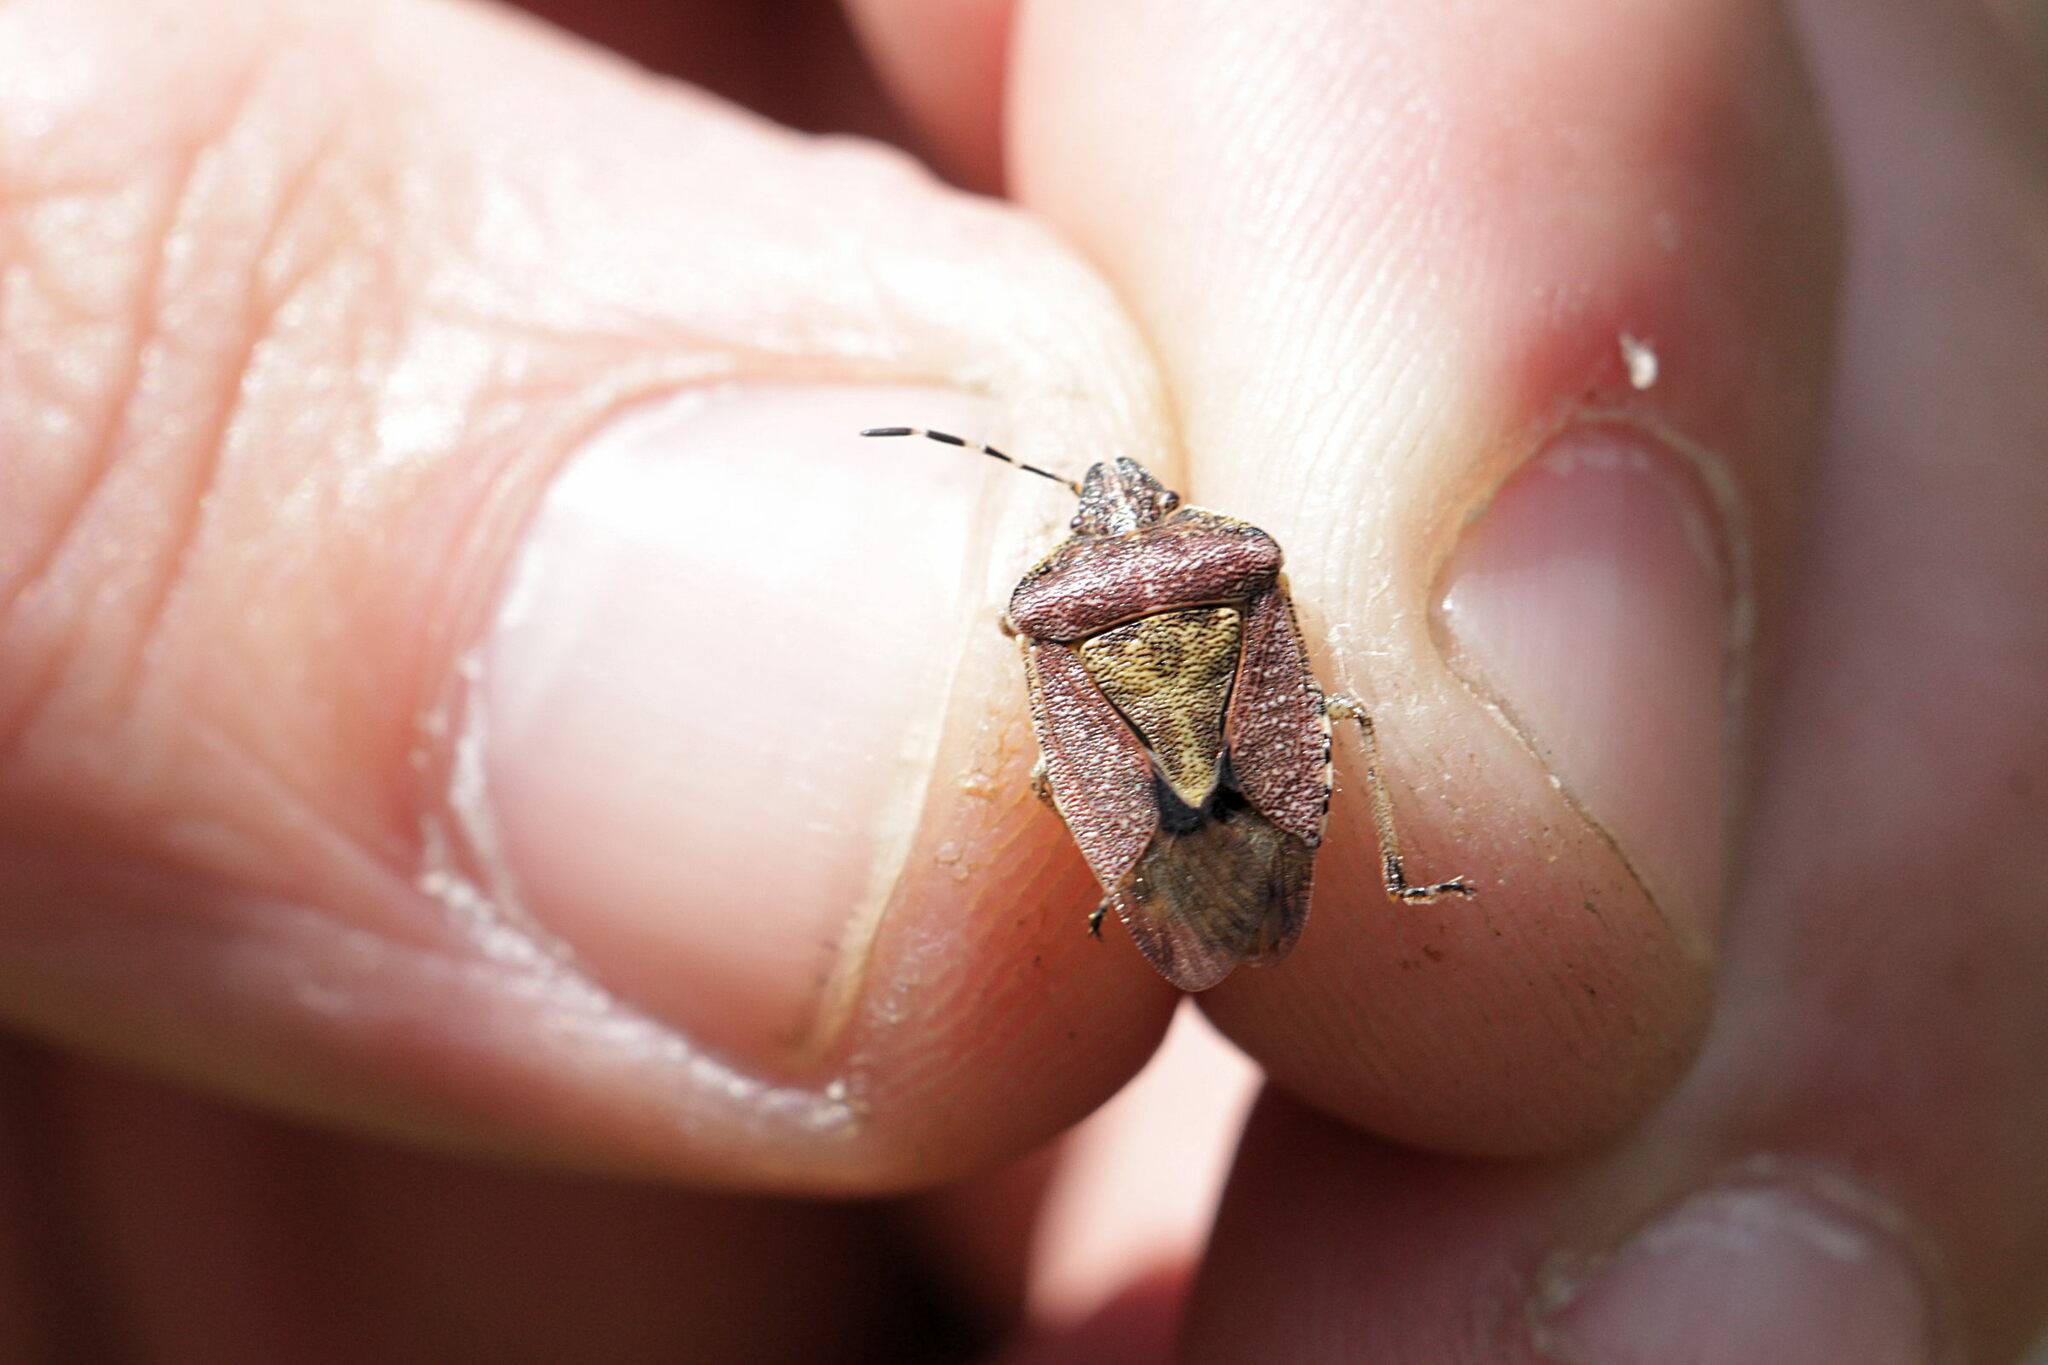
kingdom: Animalia
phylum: Arthropoda
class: Insecta
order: Hemiptera
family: Pentatomidae
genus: Dolycoris
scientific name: Dolycoris baccarum
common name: Sloe bug
